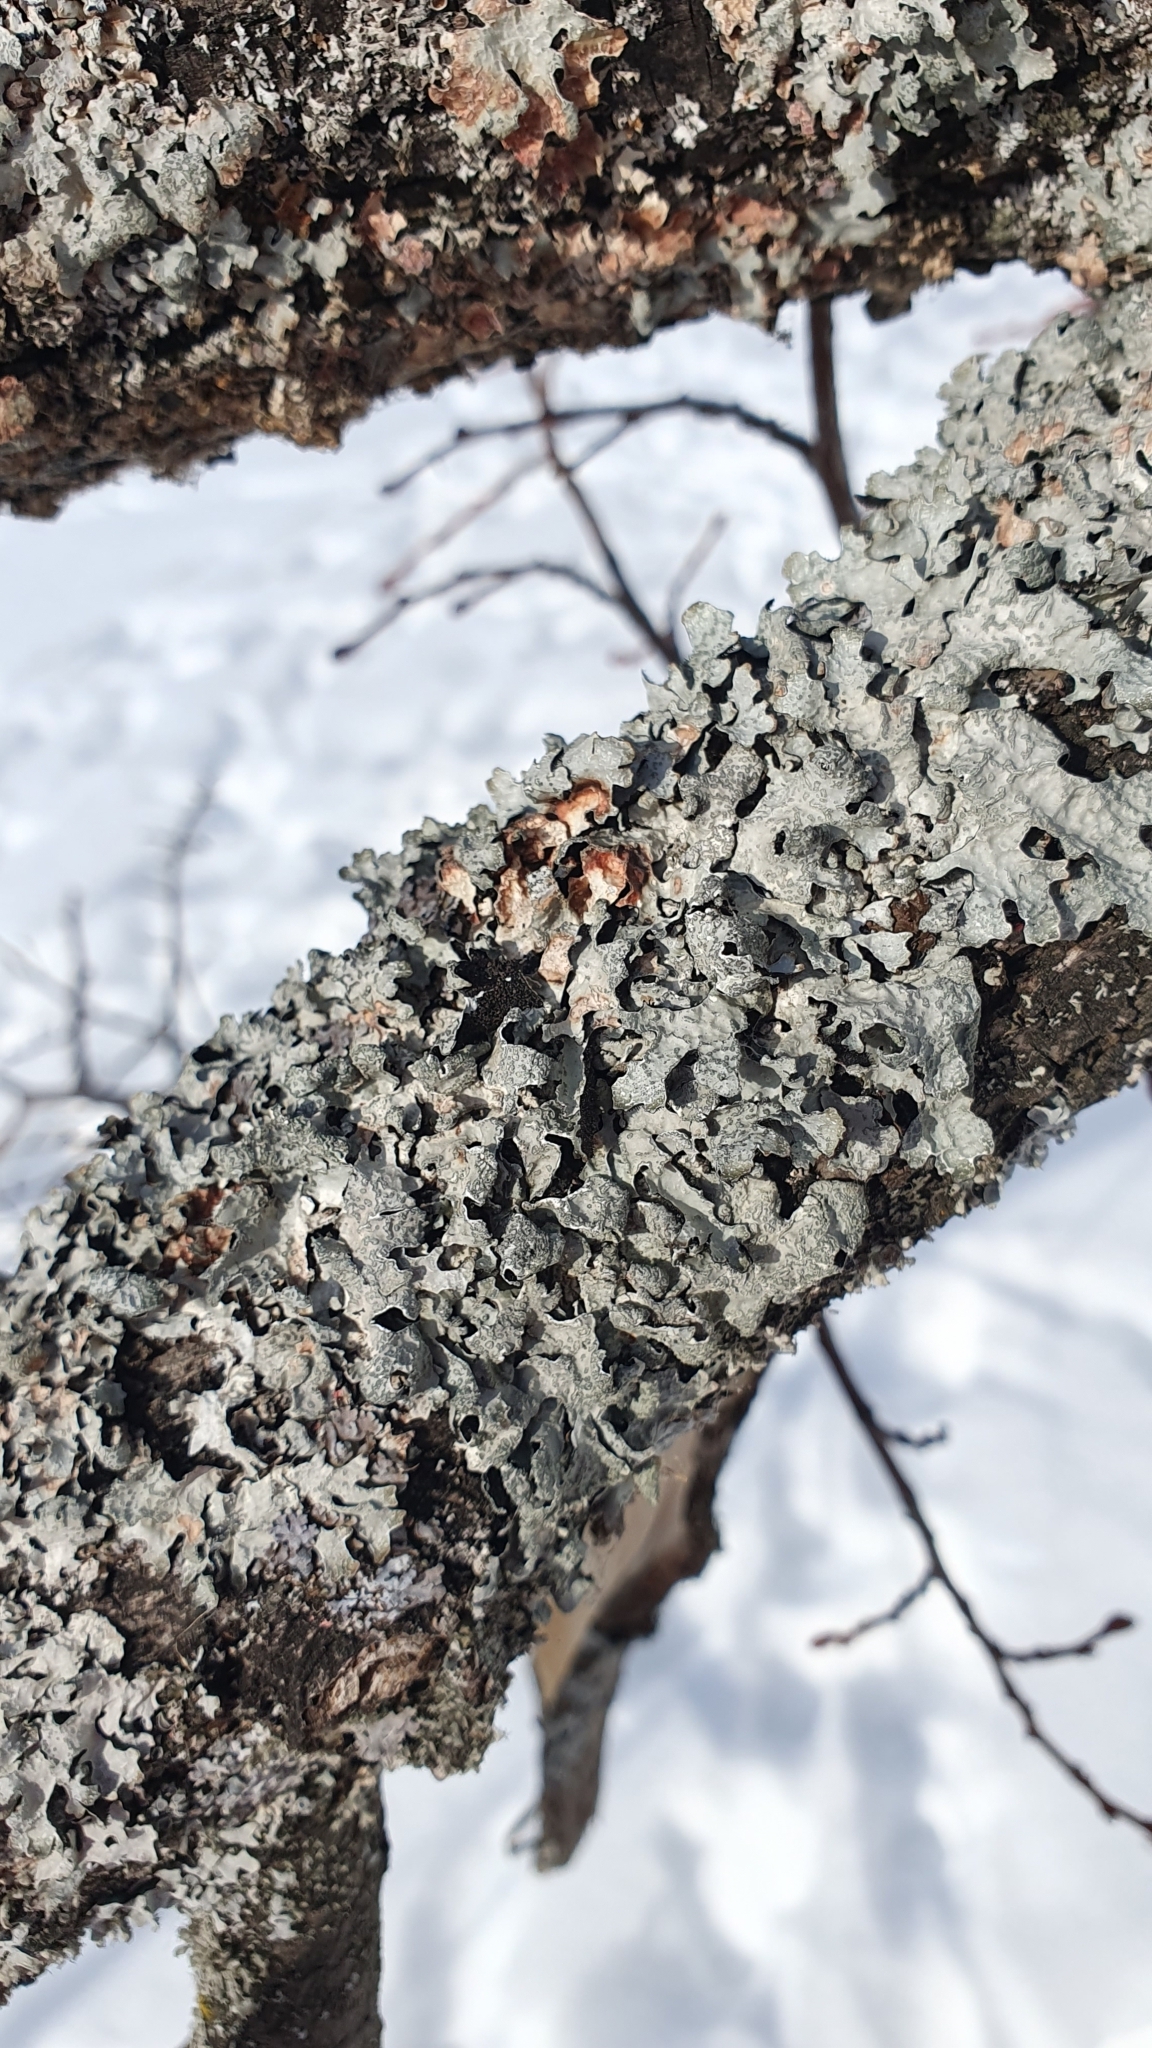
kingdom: Fungi
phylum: Ascomycota
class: Lecanoromycetes
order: Lecanorales
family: Parmeliaceae
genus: Parmelia
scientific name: Parmelia sulcata
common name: Netted shield lichen
